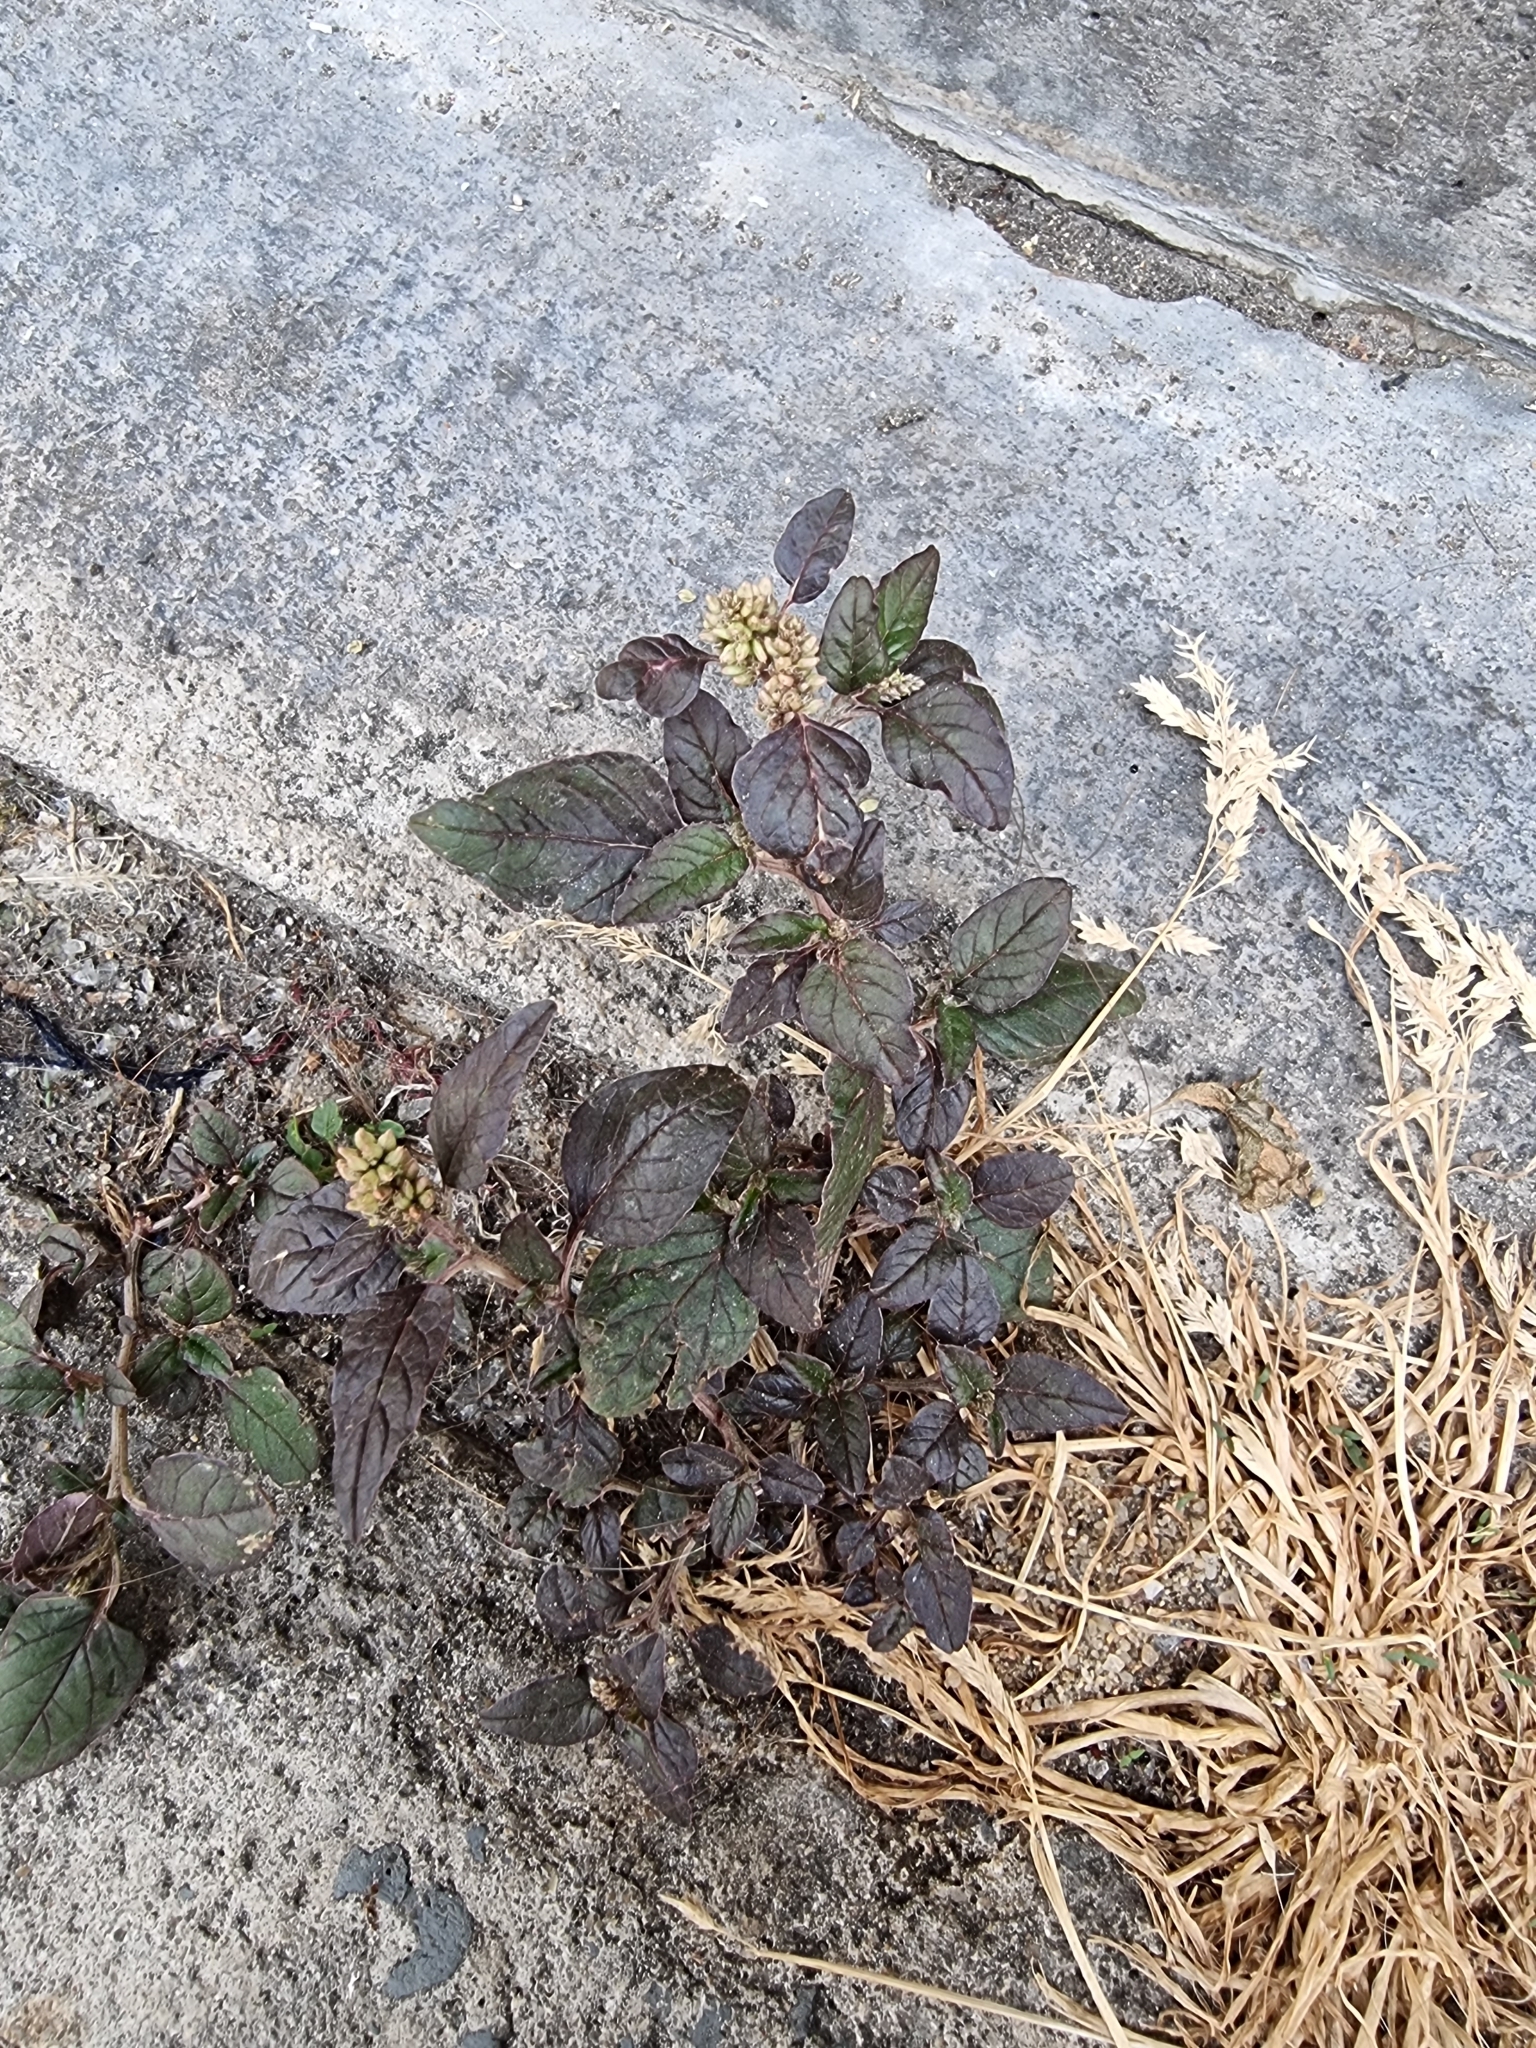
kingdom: Plantae
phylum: Tracheophyta
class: Magnoliopsida
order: Caryophyllales
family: Amaranthaceae
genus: Amaranthus
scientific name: Amaranthus deflexus
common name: Perennial pigweed
